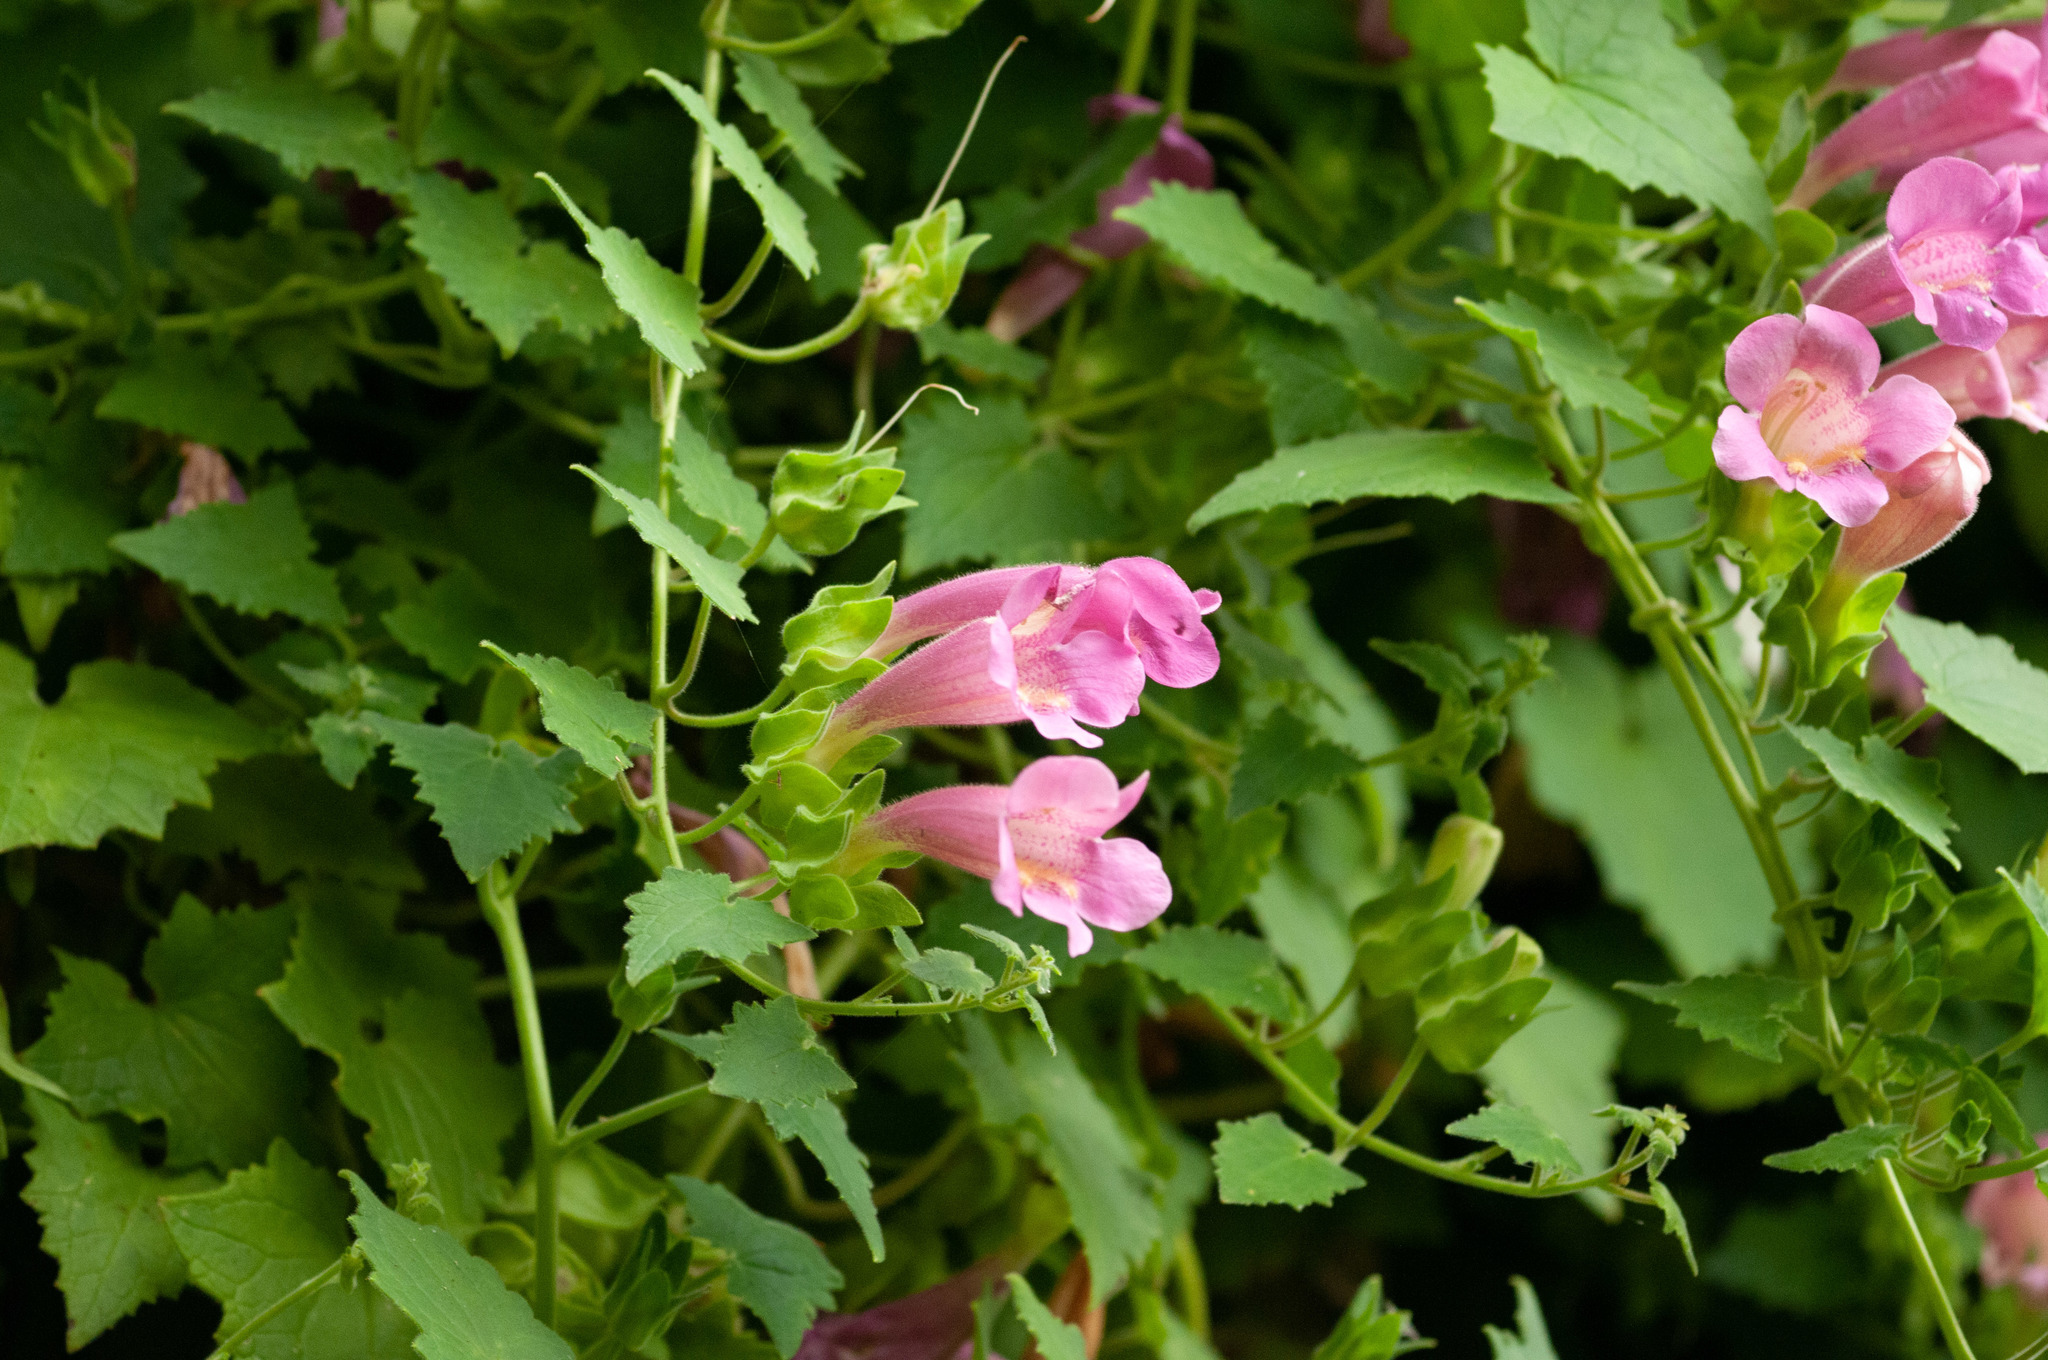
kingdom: Plantae
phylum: Tracheophyta
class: Magnoliopsida
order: Lamiales
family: Plantaginaceae
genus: Lophospermum
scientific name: Lophospermum erubescens
